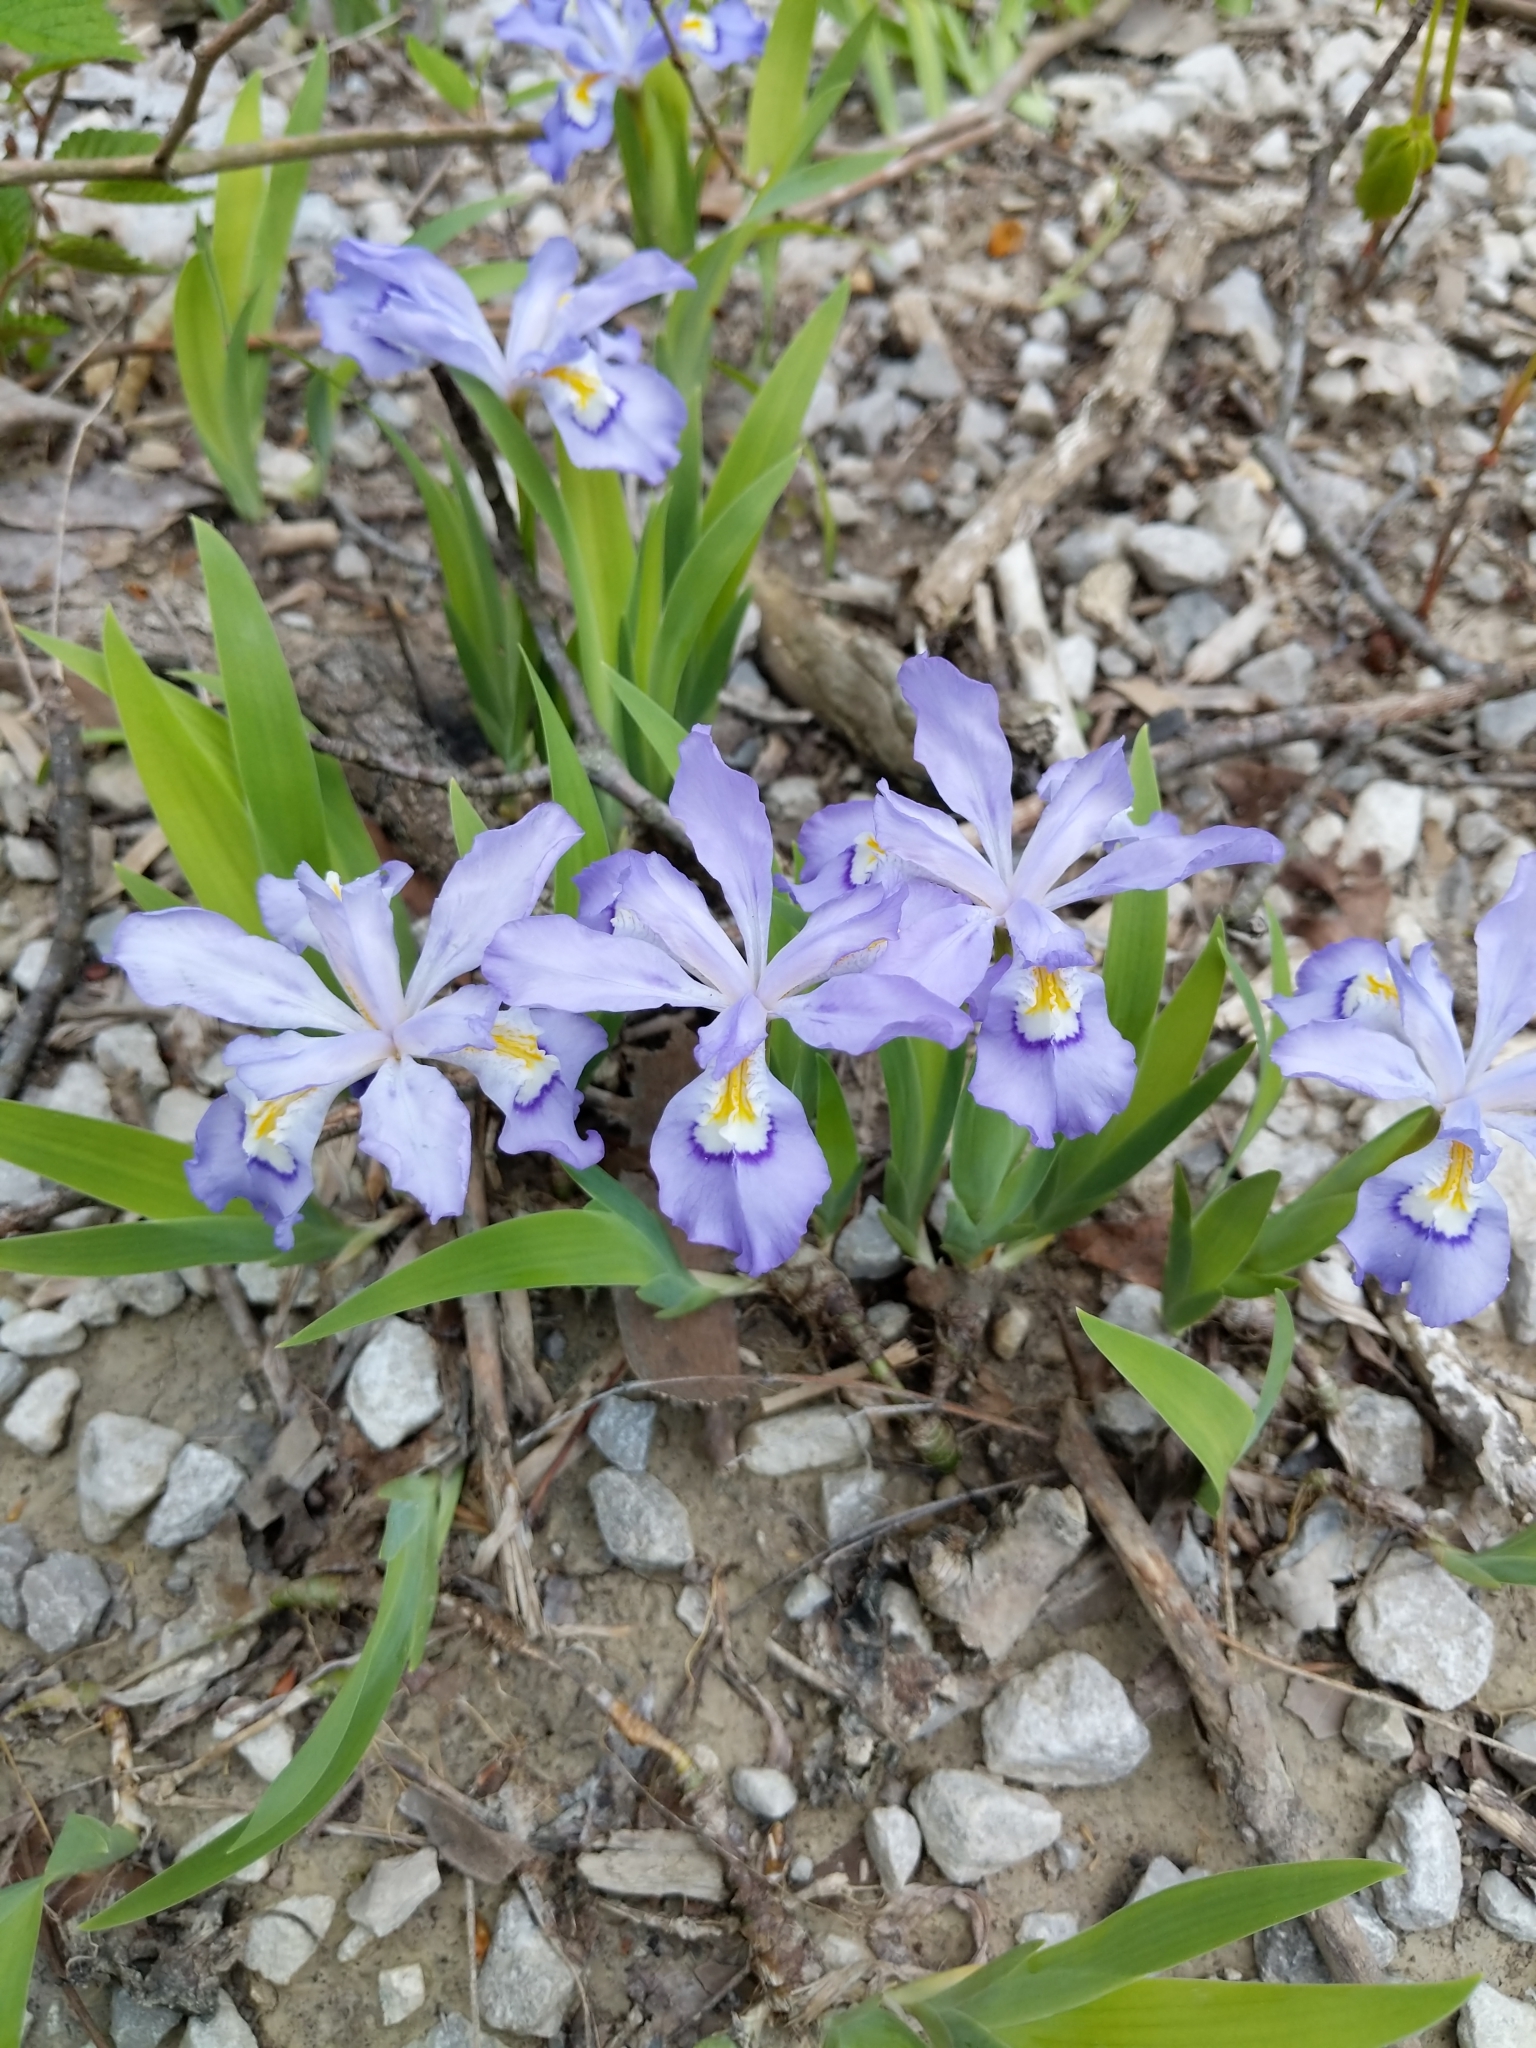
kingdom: Plantae
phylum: Tracheophyta
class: Liliopsida
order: Asparagales
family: Iridaceae
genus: Iris
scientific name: Iris cristata
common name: Crested iris
